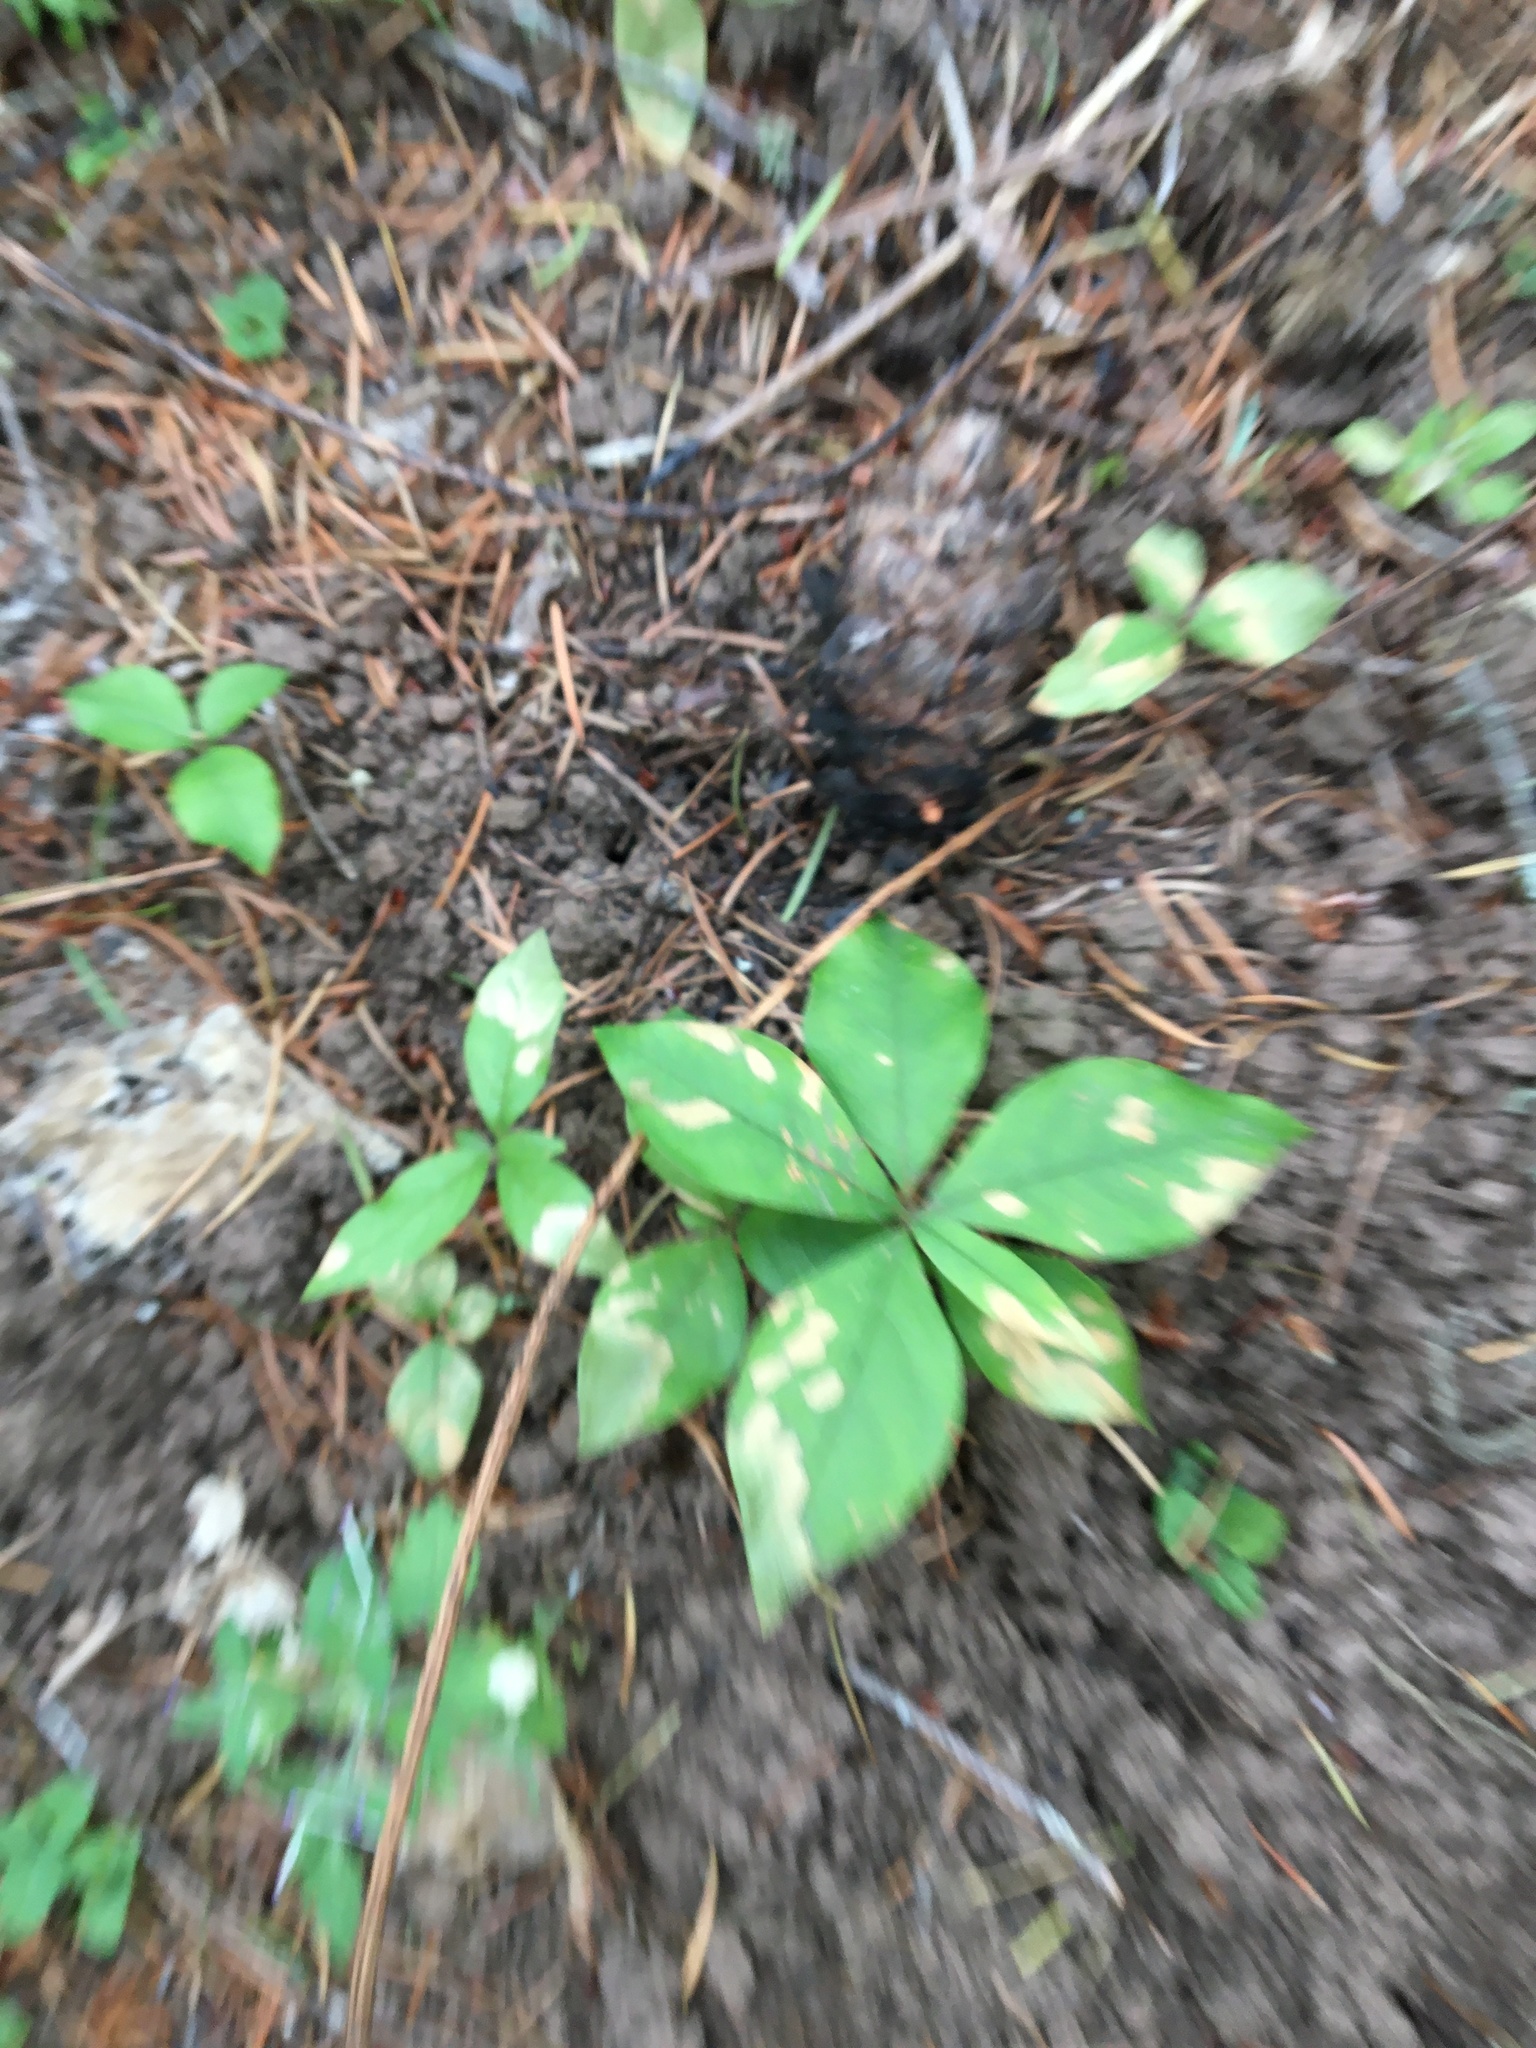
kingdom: Plantae
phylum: Tracheophyta
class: Magnoliopsida
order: Ericales
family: Primulaceae
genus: Lysimachia
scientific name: Lysimachia latifolia
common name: Pacific starflower
